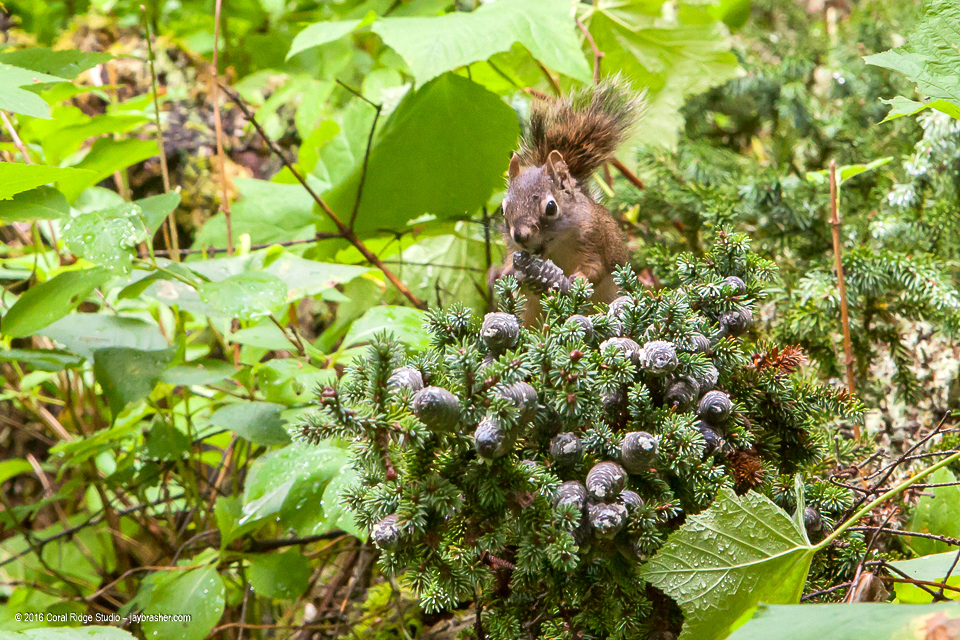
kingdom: Animalia
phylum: Chordata
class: Mammalia
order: Rodentia
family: Sciuridae
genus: Tamiasciurus
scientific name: Tamiasciurus hudsonicus
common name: Red squirrel
